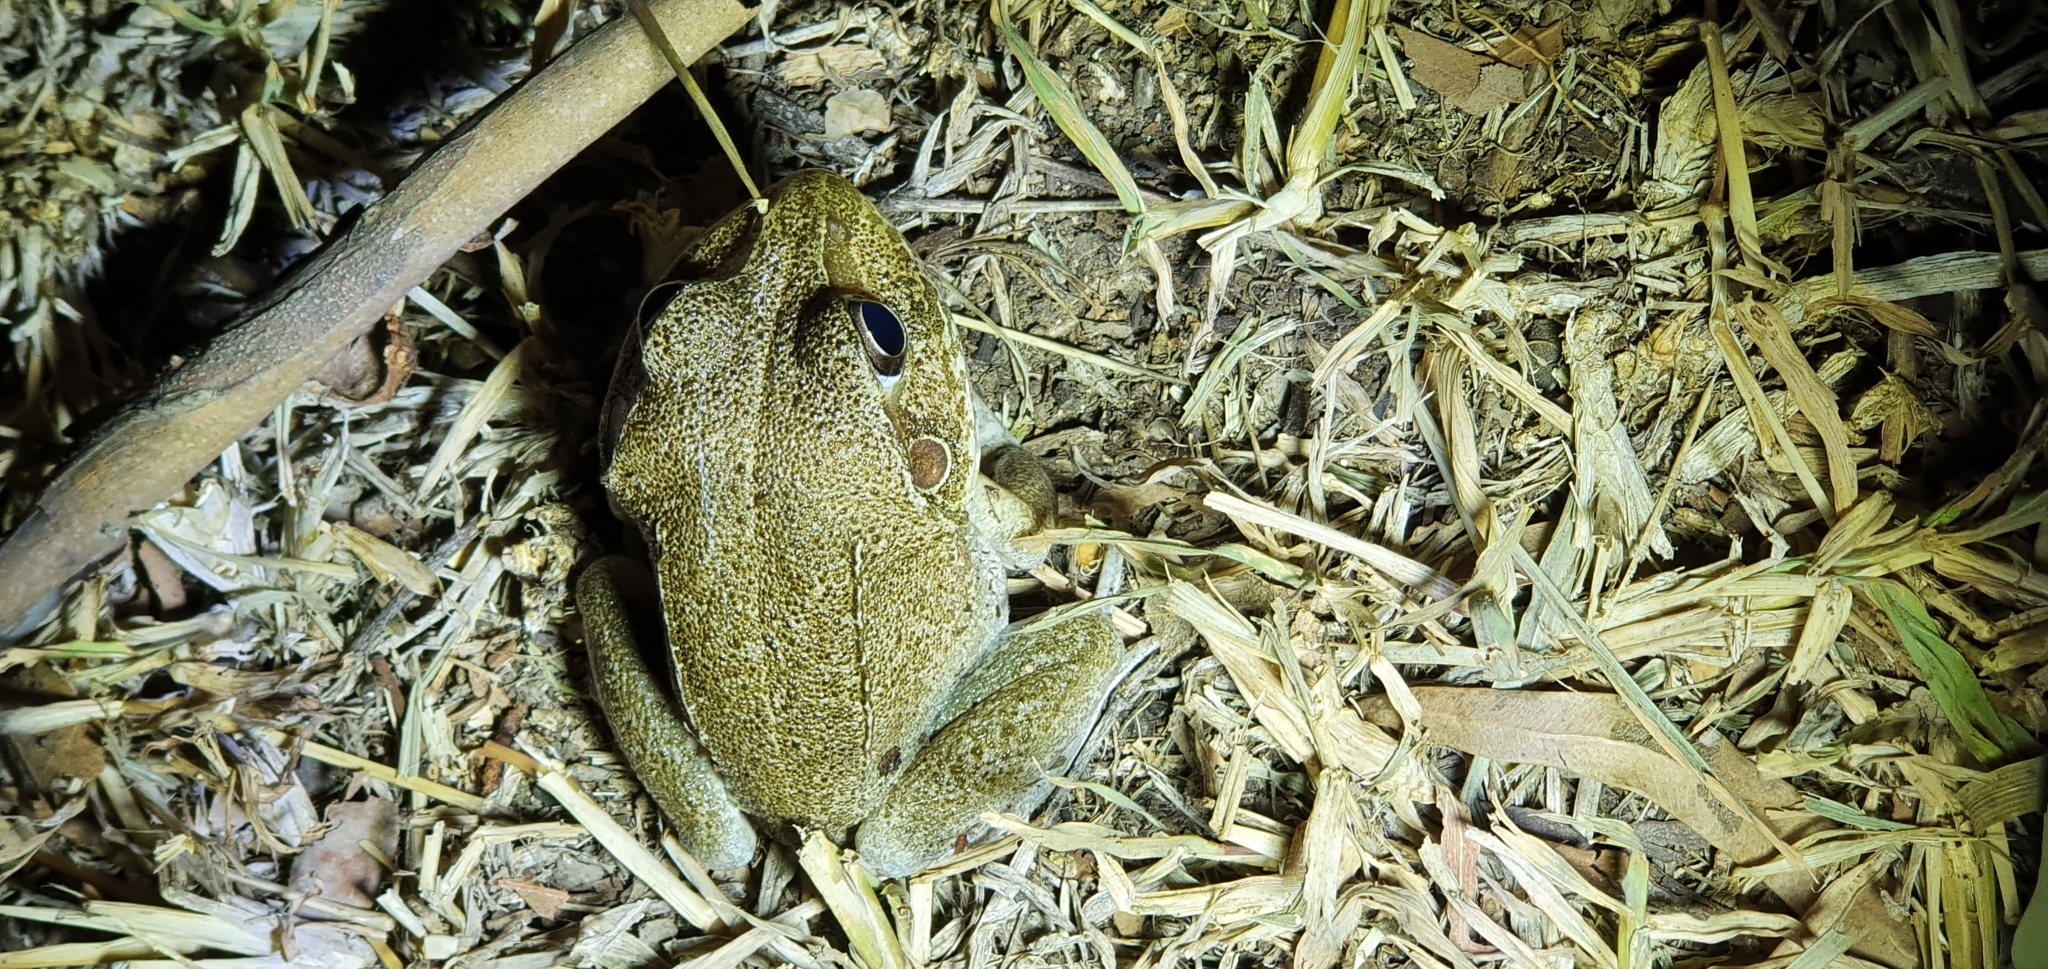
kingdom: Animalia
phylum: Chordata
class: Amphibia
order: Anura
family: Pelodryadidae
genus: Ranoidea
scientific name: Ranoidea novaehollandiae
